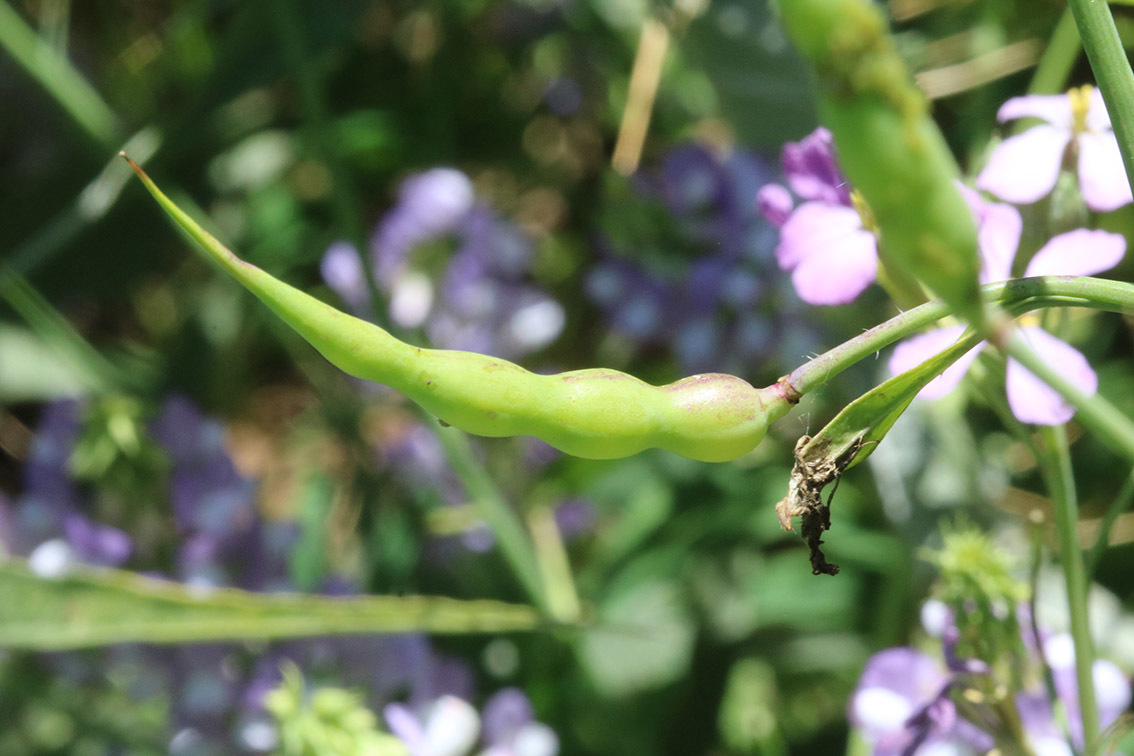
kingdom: Plantae
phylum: Tracheophyta
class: Magnoliopsida
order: Brassicales
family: Brassicaceae
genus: Raphanus
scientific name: Raphanus sativus
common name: Cultivated radish
